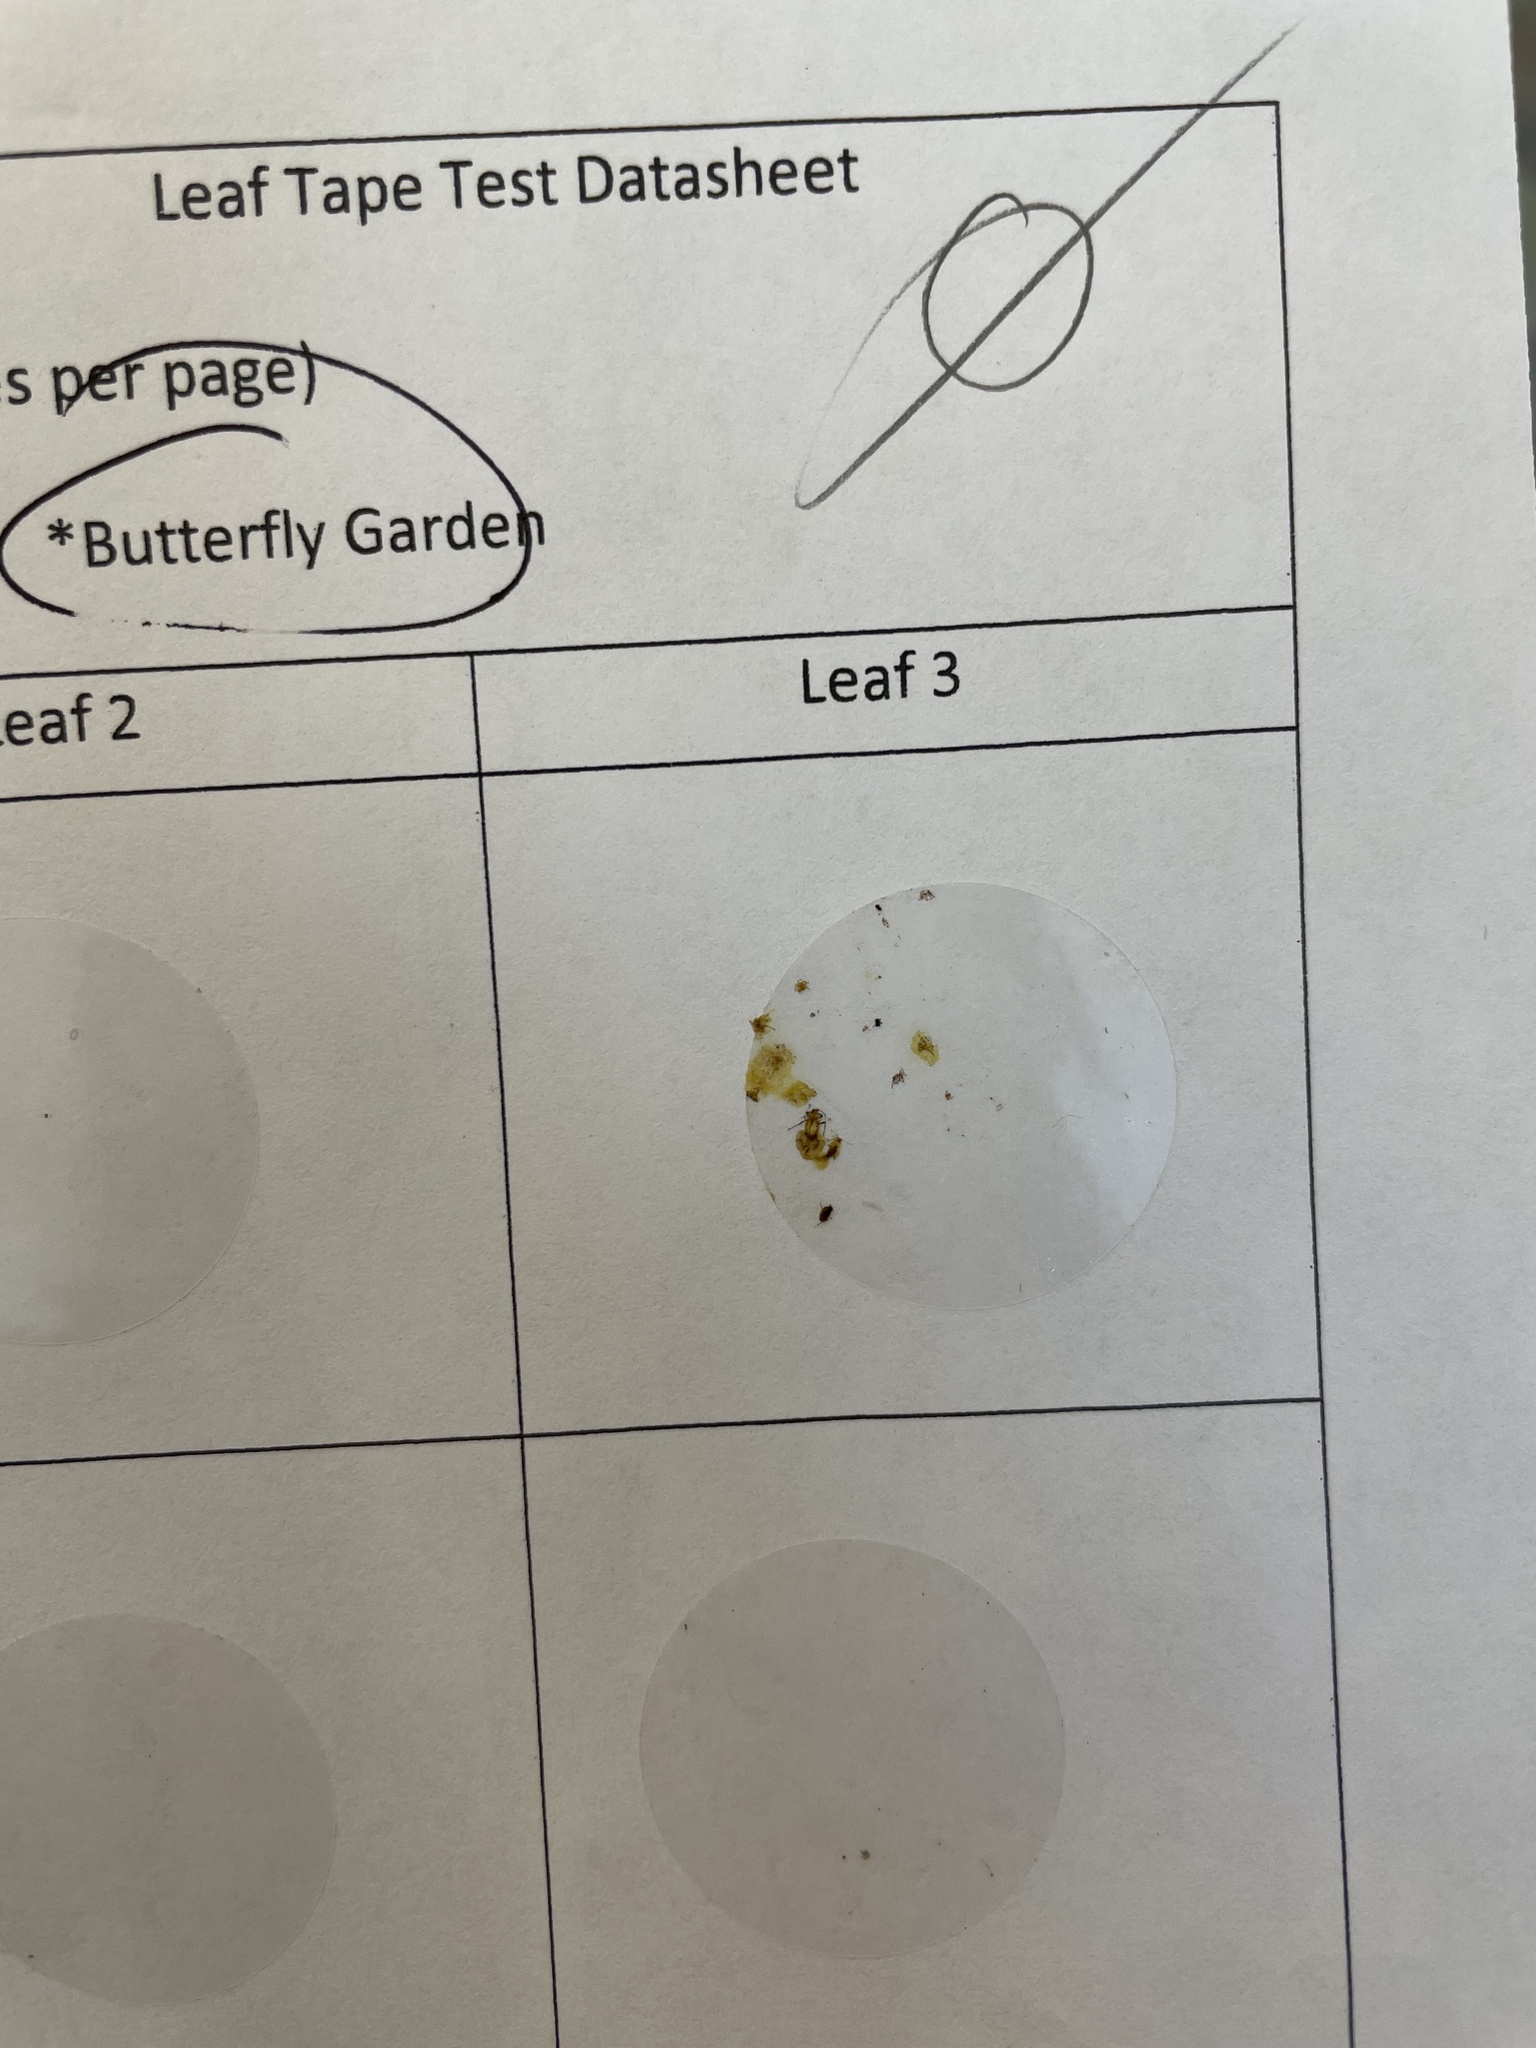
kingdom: Animalia
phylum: Arthropoda
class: Insecta
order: Hemiptera
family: Aphididae
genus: Aphis
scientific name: Aphis nerii
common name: Oleander aphid
